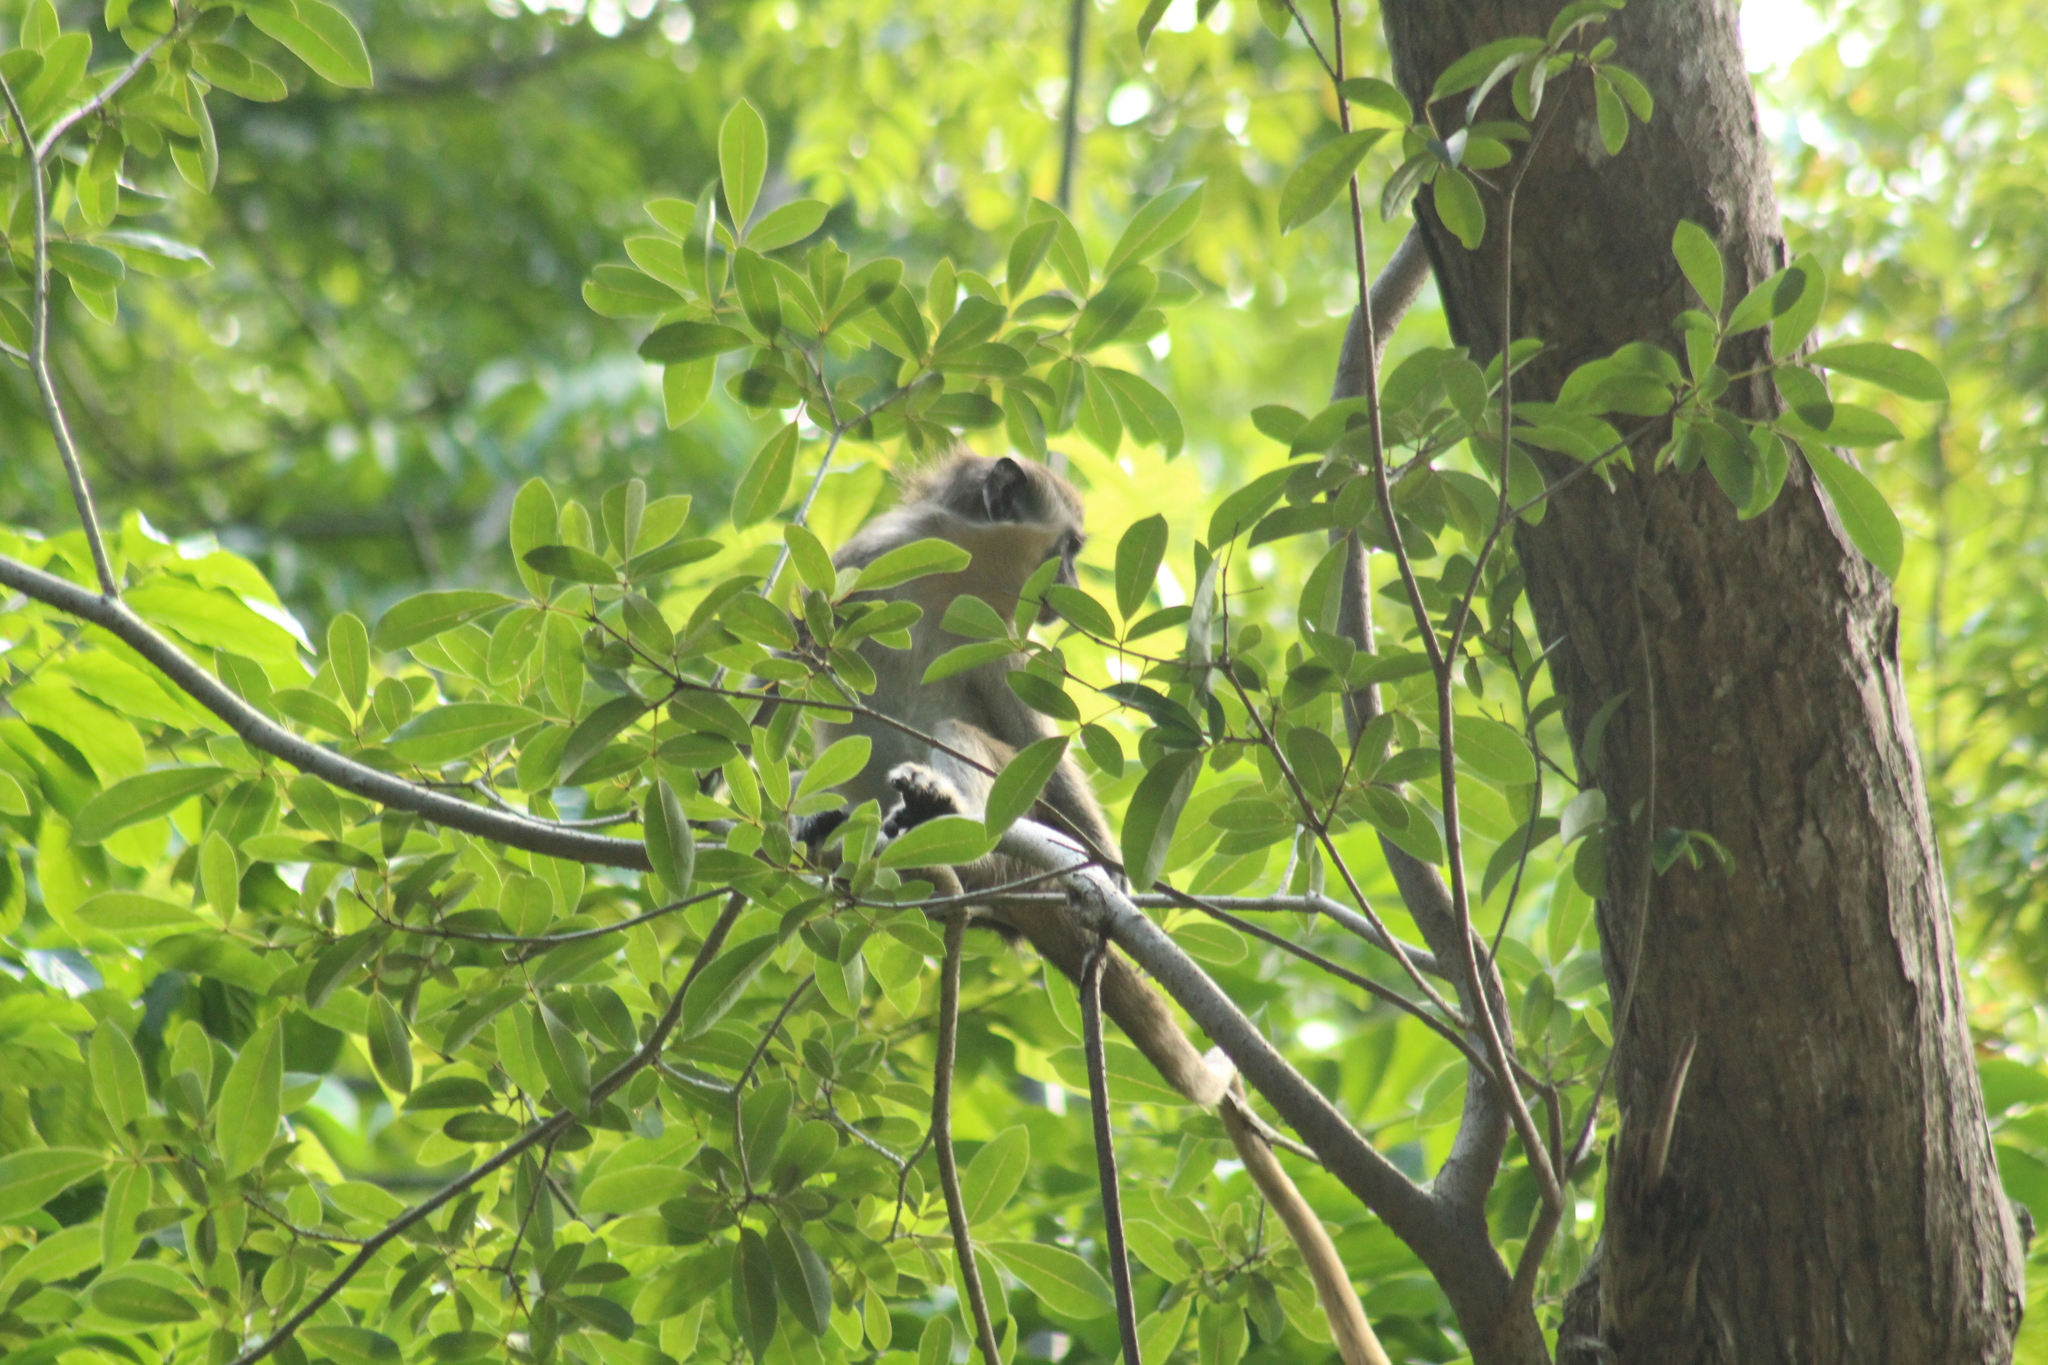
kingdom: Animalia
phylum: Chordata
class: Mammalia
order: Primates
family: Cercopithecidae
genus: Chlorocebus
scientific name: Chlorocebus sabaeus
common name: Green monkey
